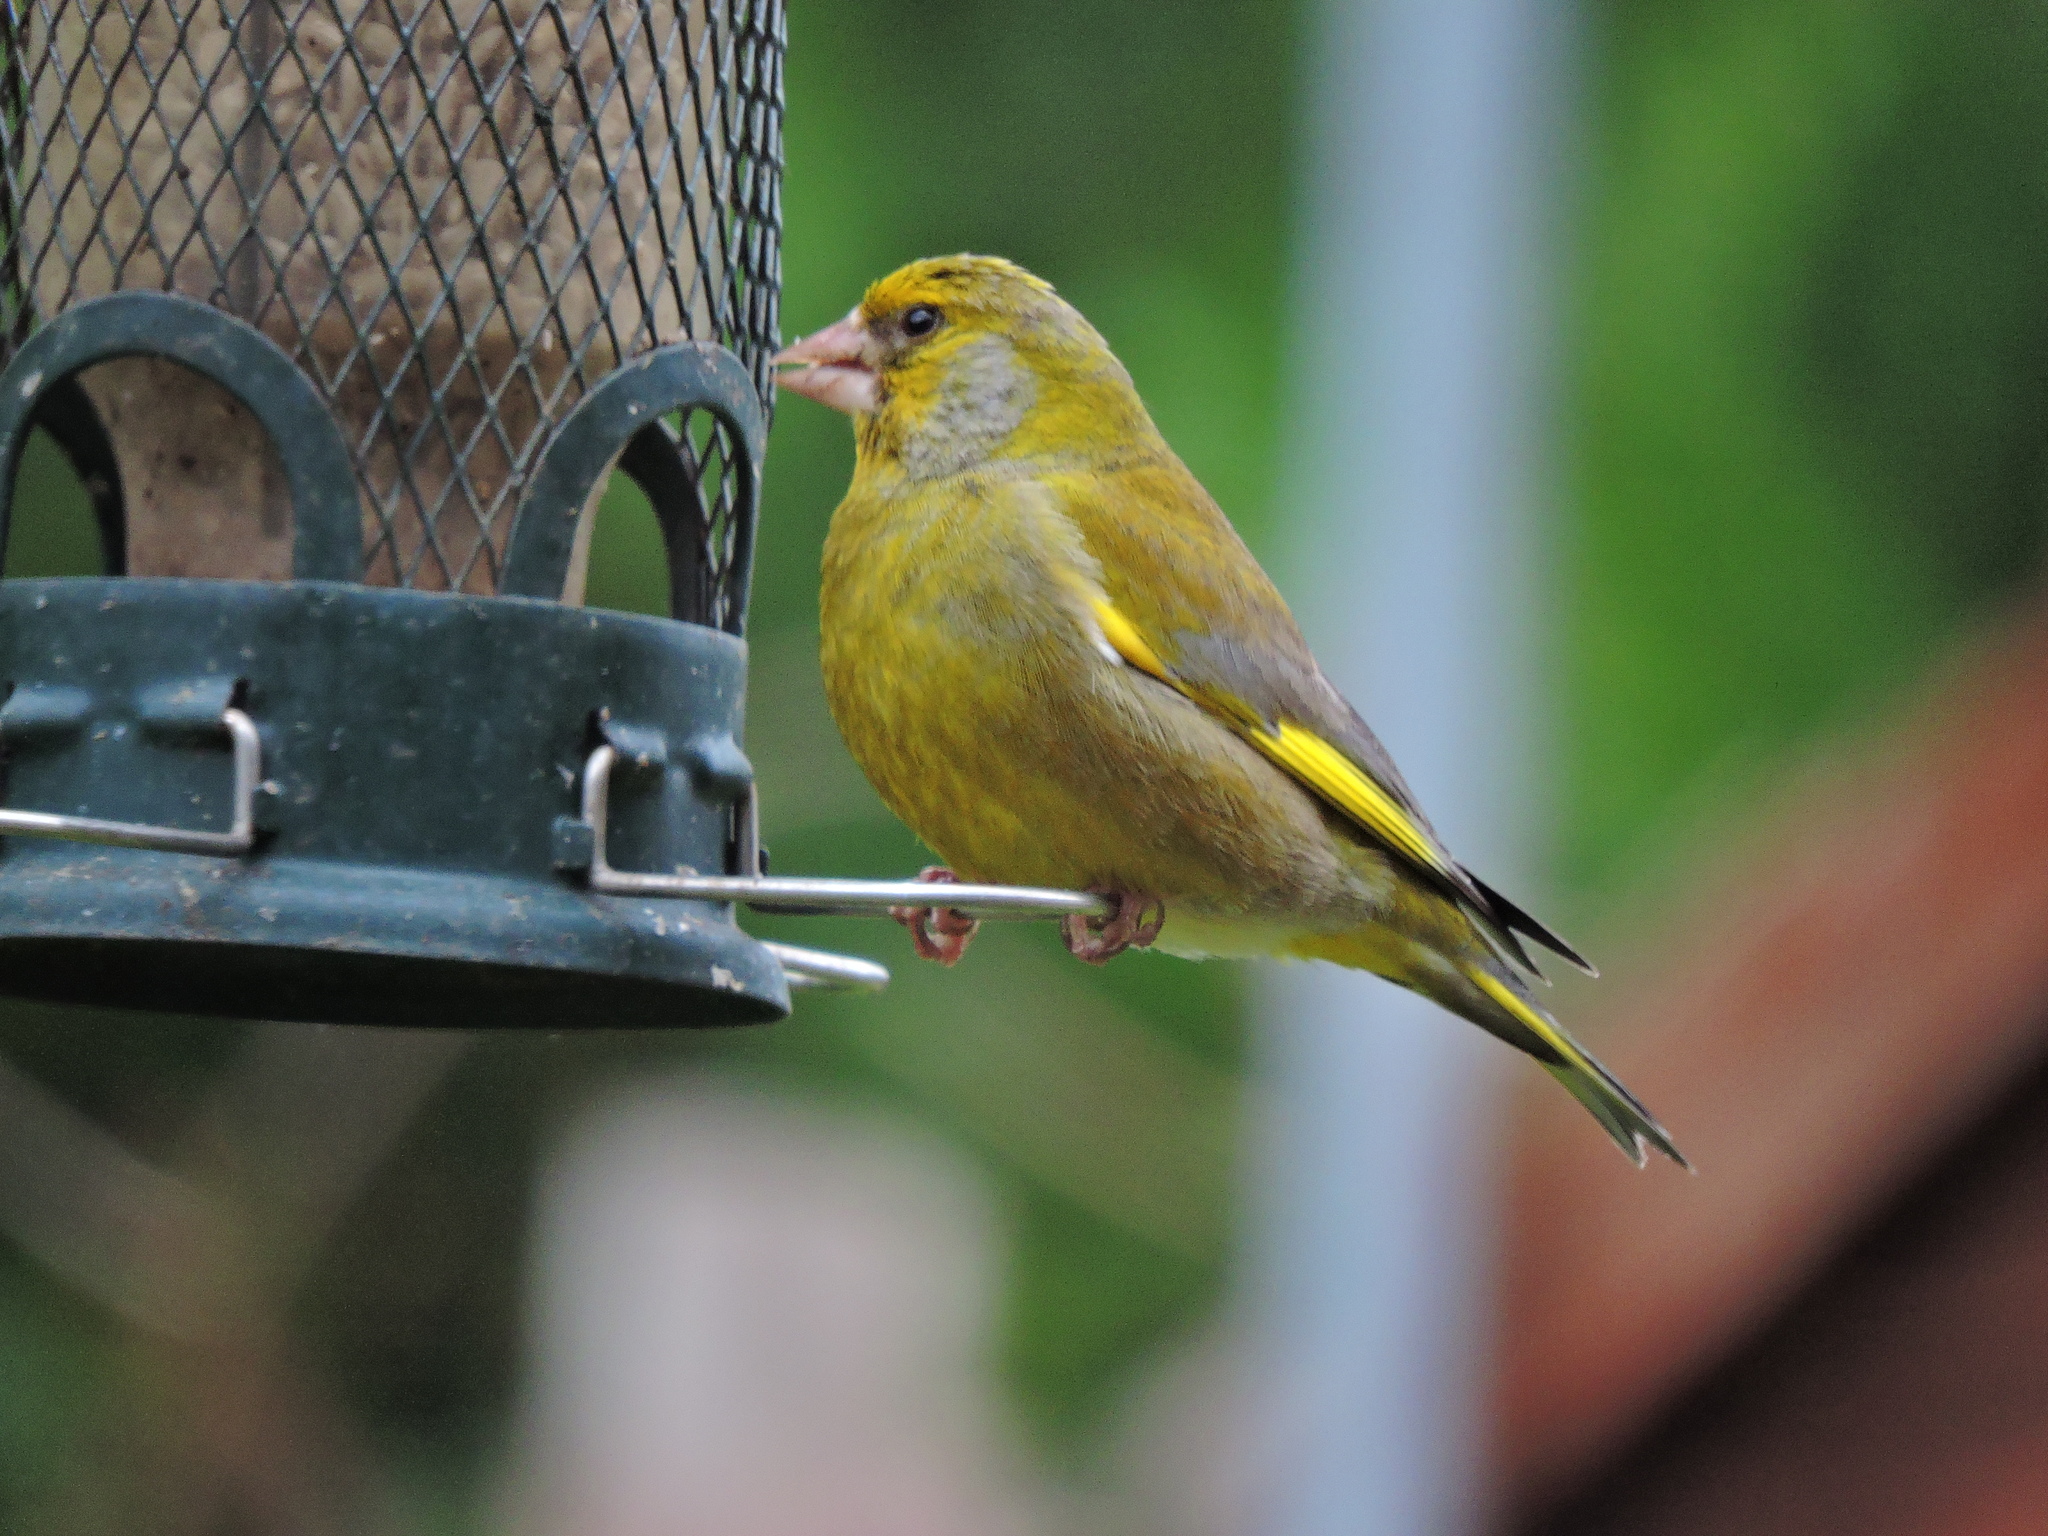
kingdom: Plantae
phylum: Tracheophyta
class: Liliopsida
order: Poales
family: Poaceae
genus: Chloris
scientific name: Chloris chloris
